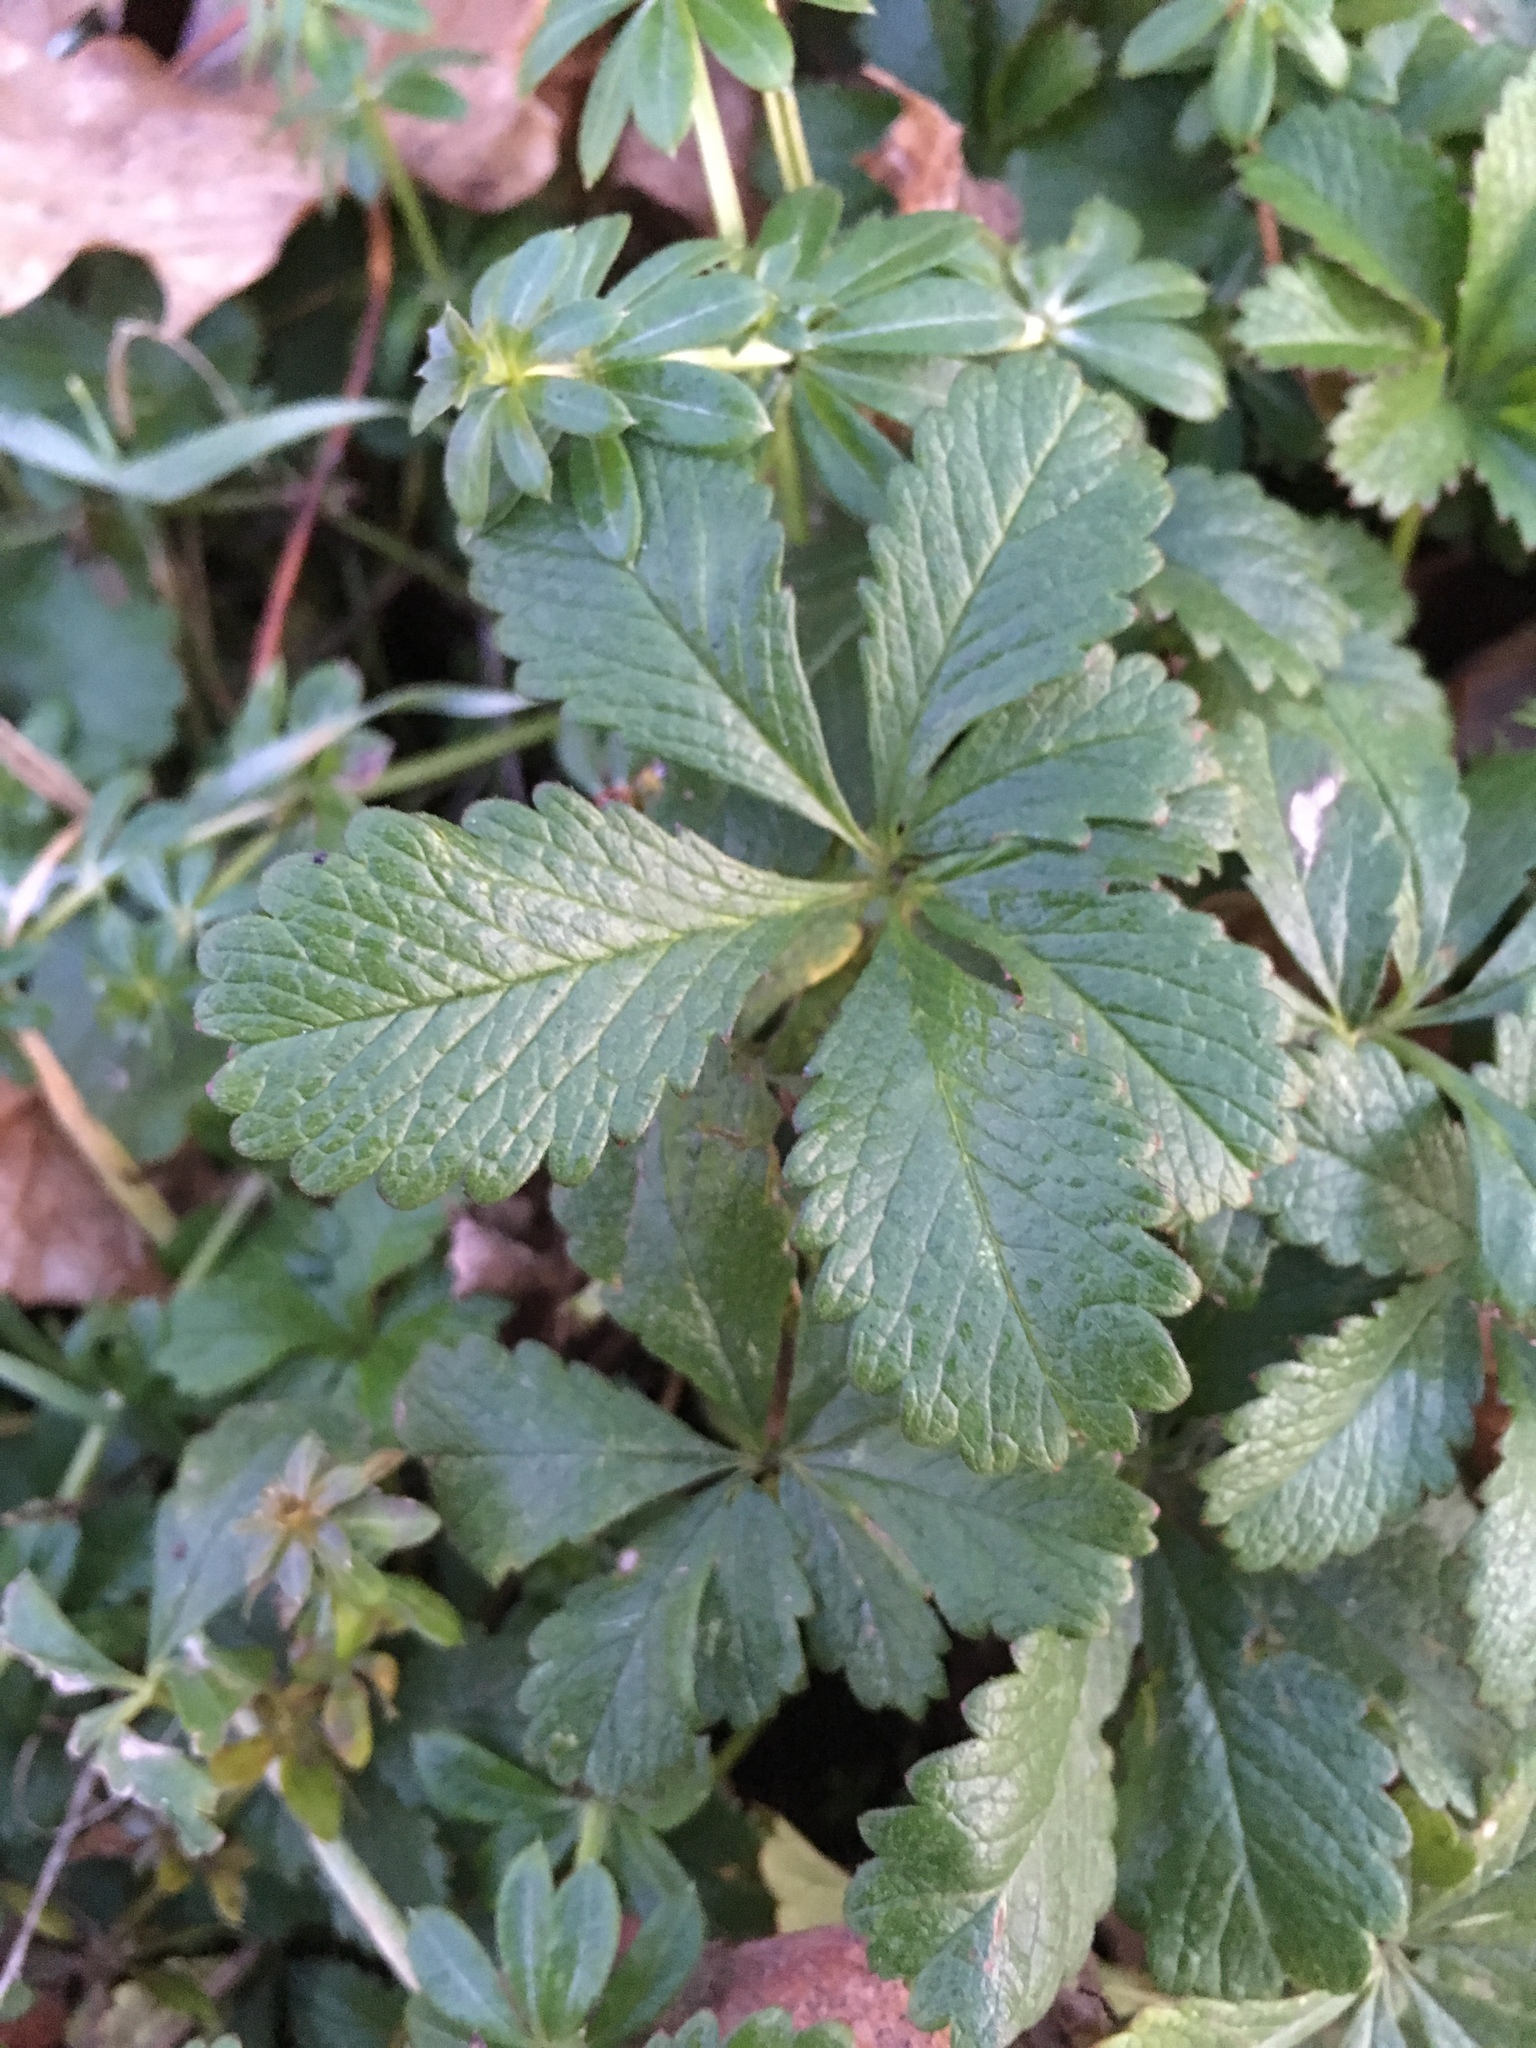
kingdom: Plantae
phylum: Tracheophyta
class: Magnoliopsida
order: Rosales
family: Rosaceae
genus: Potentilla
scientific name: Potentilla reptans
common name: Creeping cinquefoil
